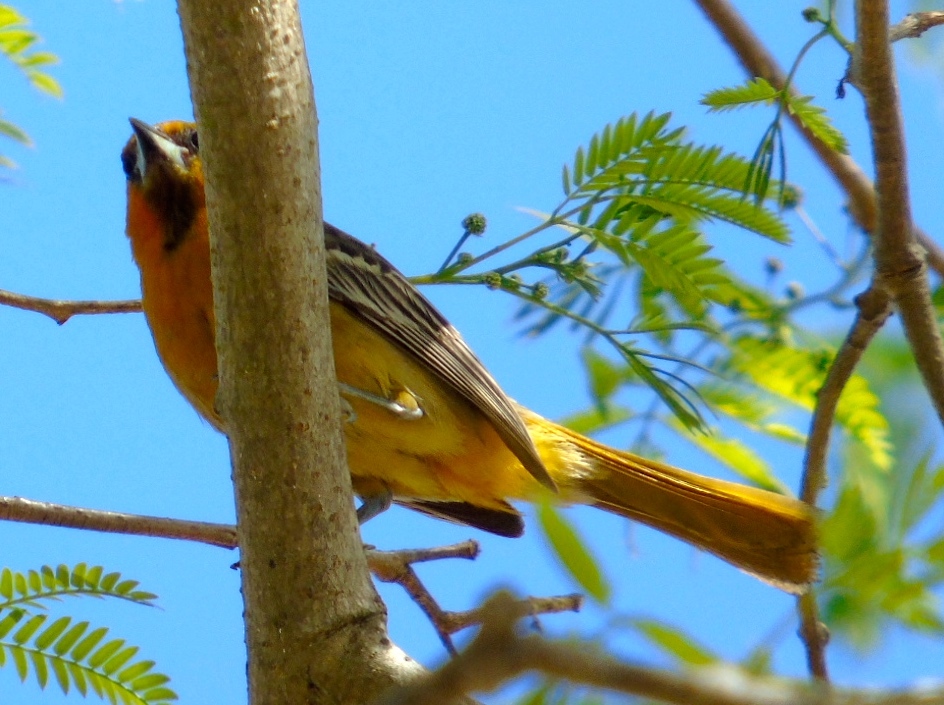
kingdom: Animalia
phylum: Chordata
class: Aves
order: Passeriformes
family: Icteridae
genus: Icterus
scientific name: Icterus pustulatus
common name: Streak-backed oriole
